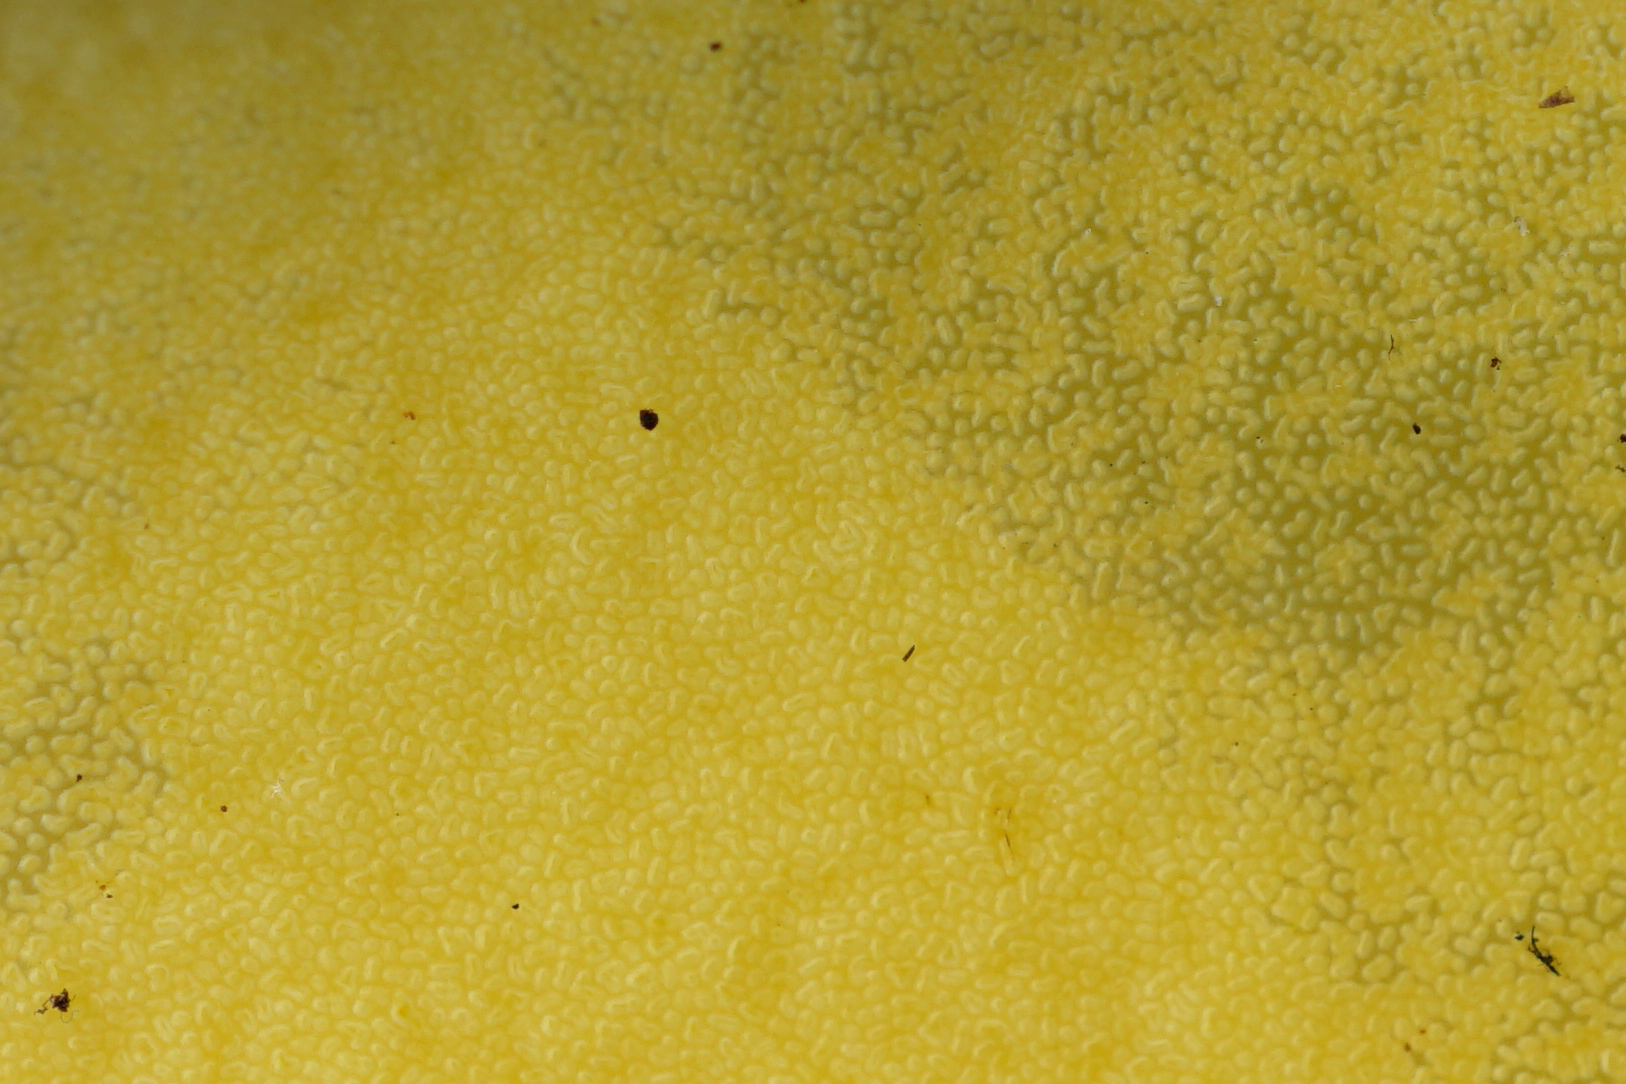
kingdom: Fungi
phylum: Basidiomycota
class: Agaricomycetes
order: Boletales
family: Boletaceae
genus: Boletus
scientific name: Boletus speciosus
